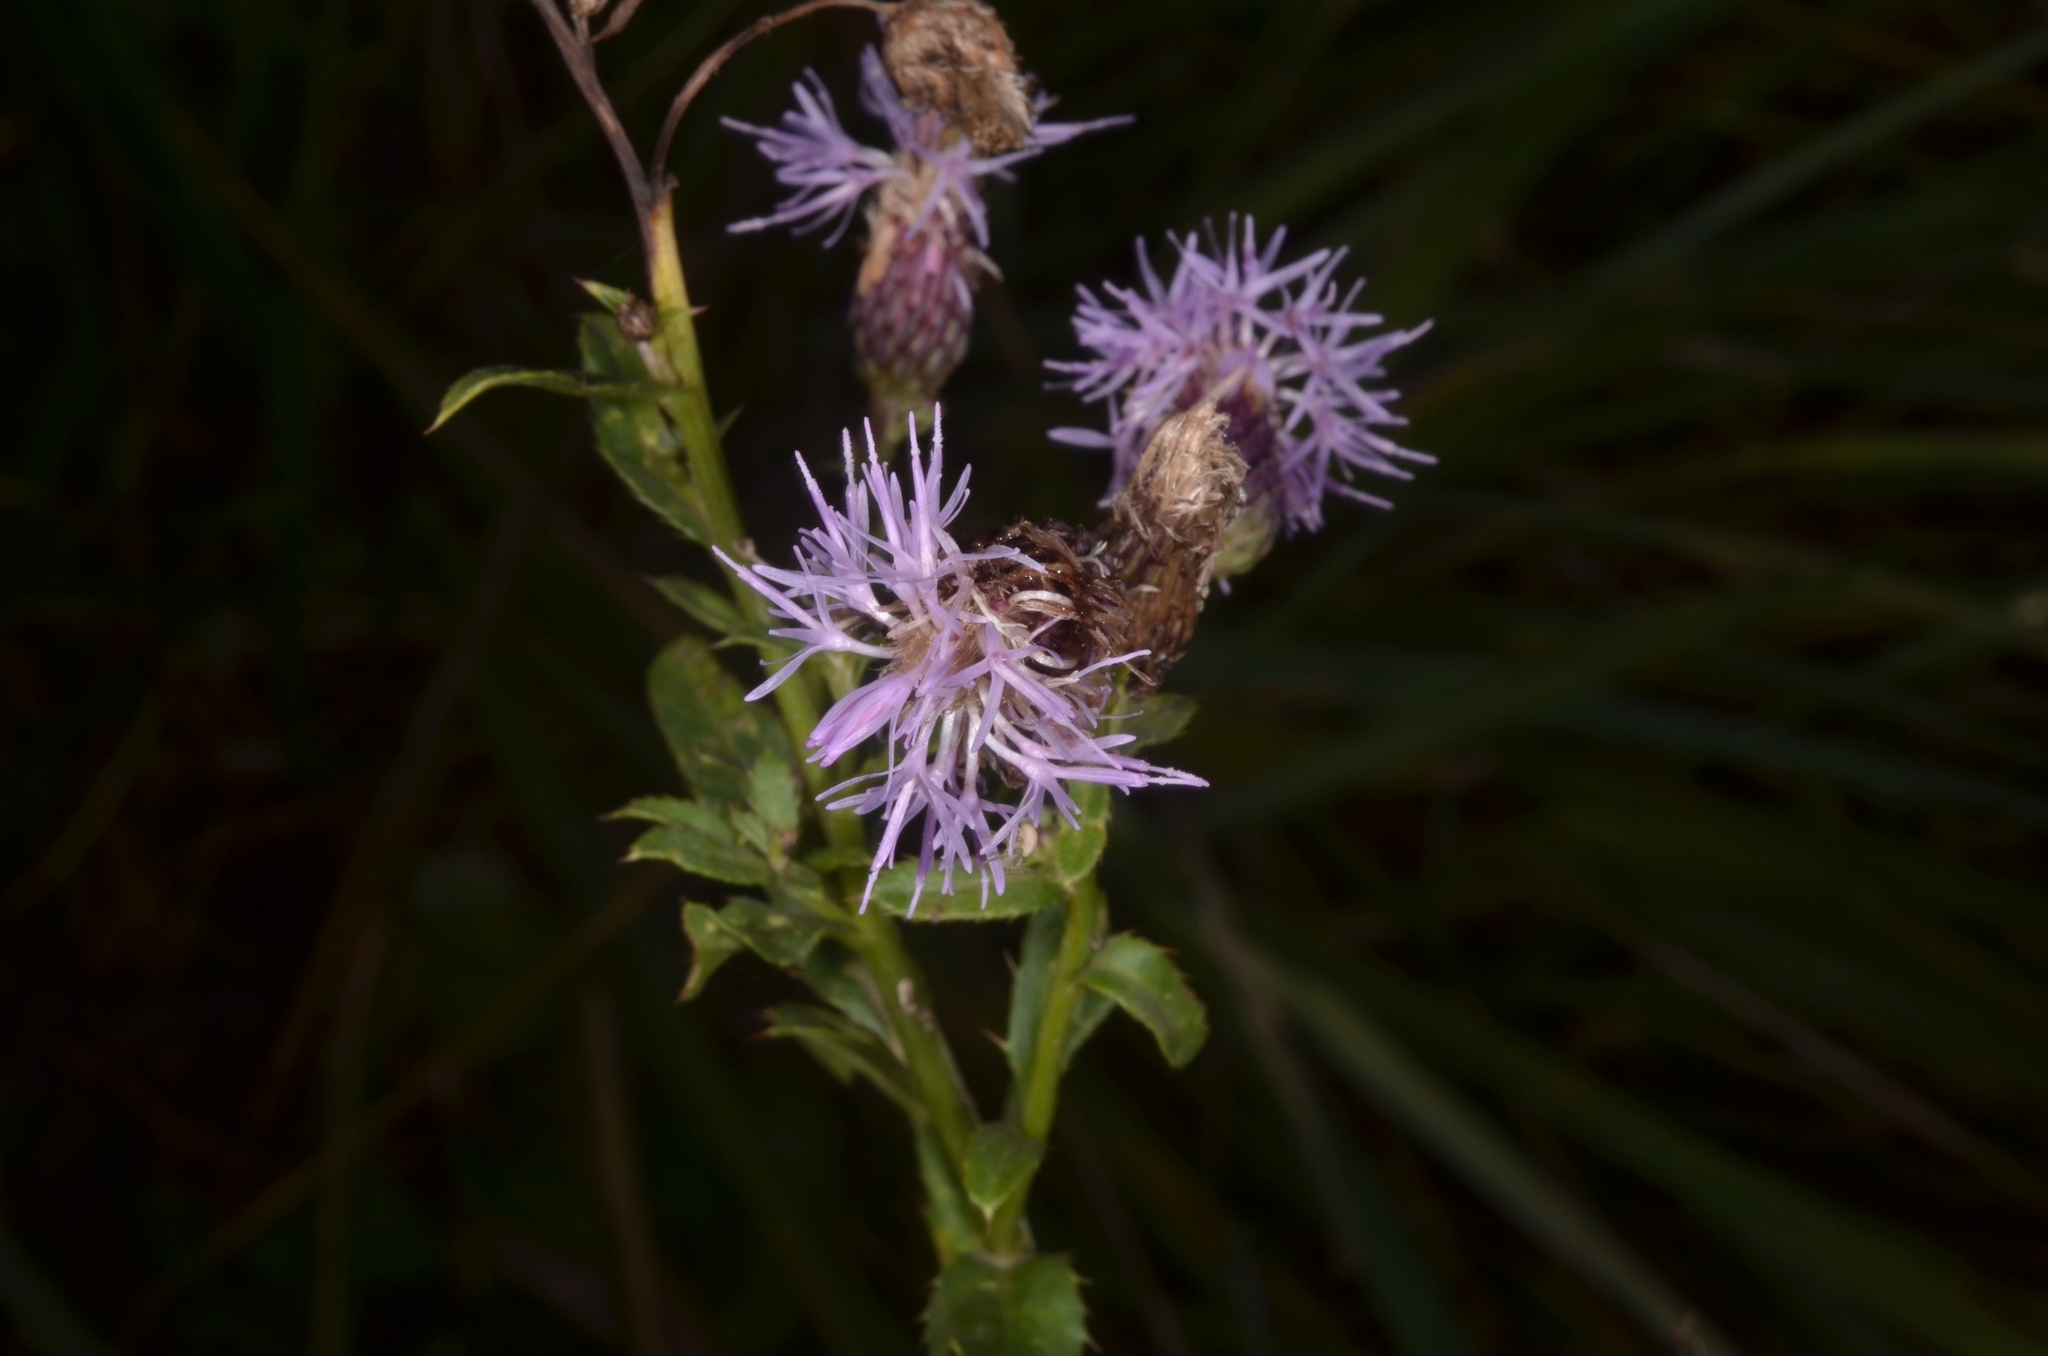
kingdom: Plantae
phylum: Tracheophyta
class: Magnoliopsida
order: Asterales
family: Asteraceae
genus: Cirsium
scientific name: Cirsium arvense
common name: Creeping thistle
